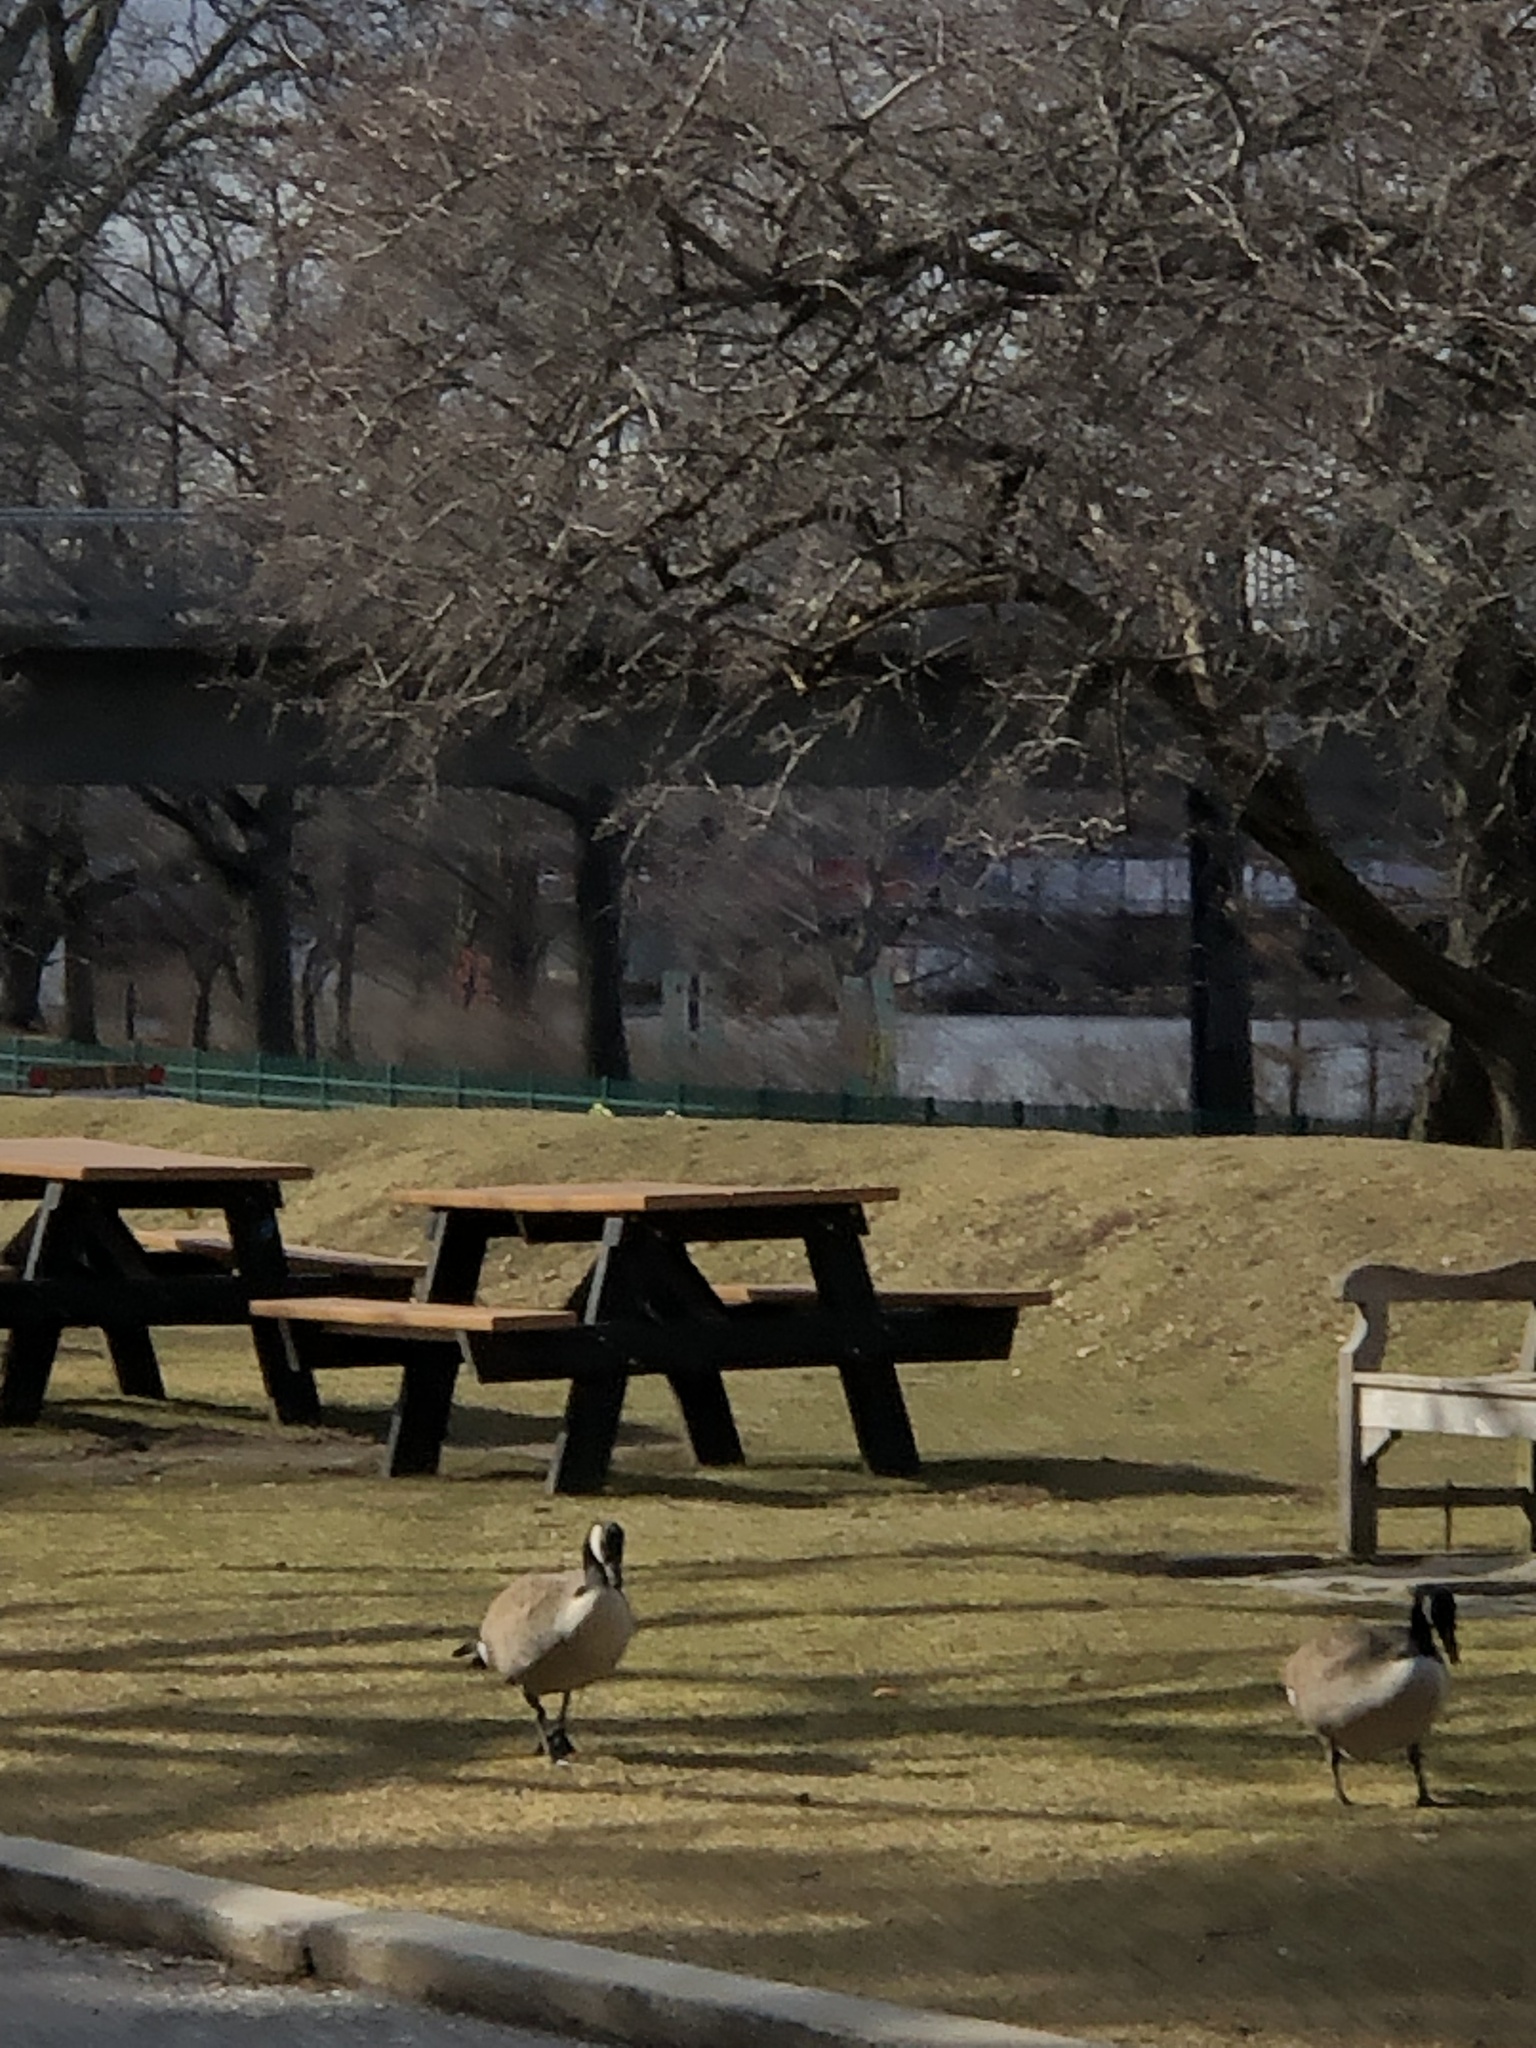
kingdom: Animalia
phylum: Chordata
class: Aves
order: Anseriformes
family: Anatidae
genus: Branta
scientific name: Branta canadensis
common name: Canada goose
